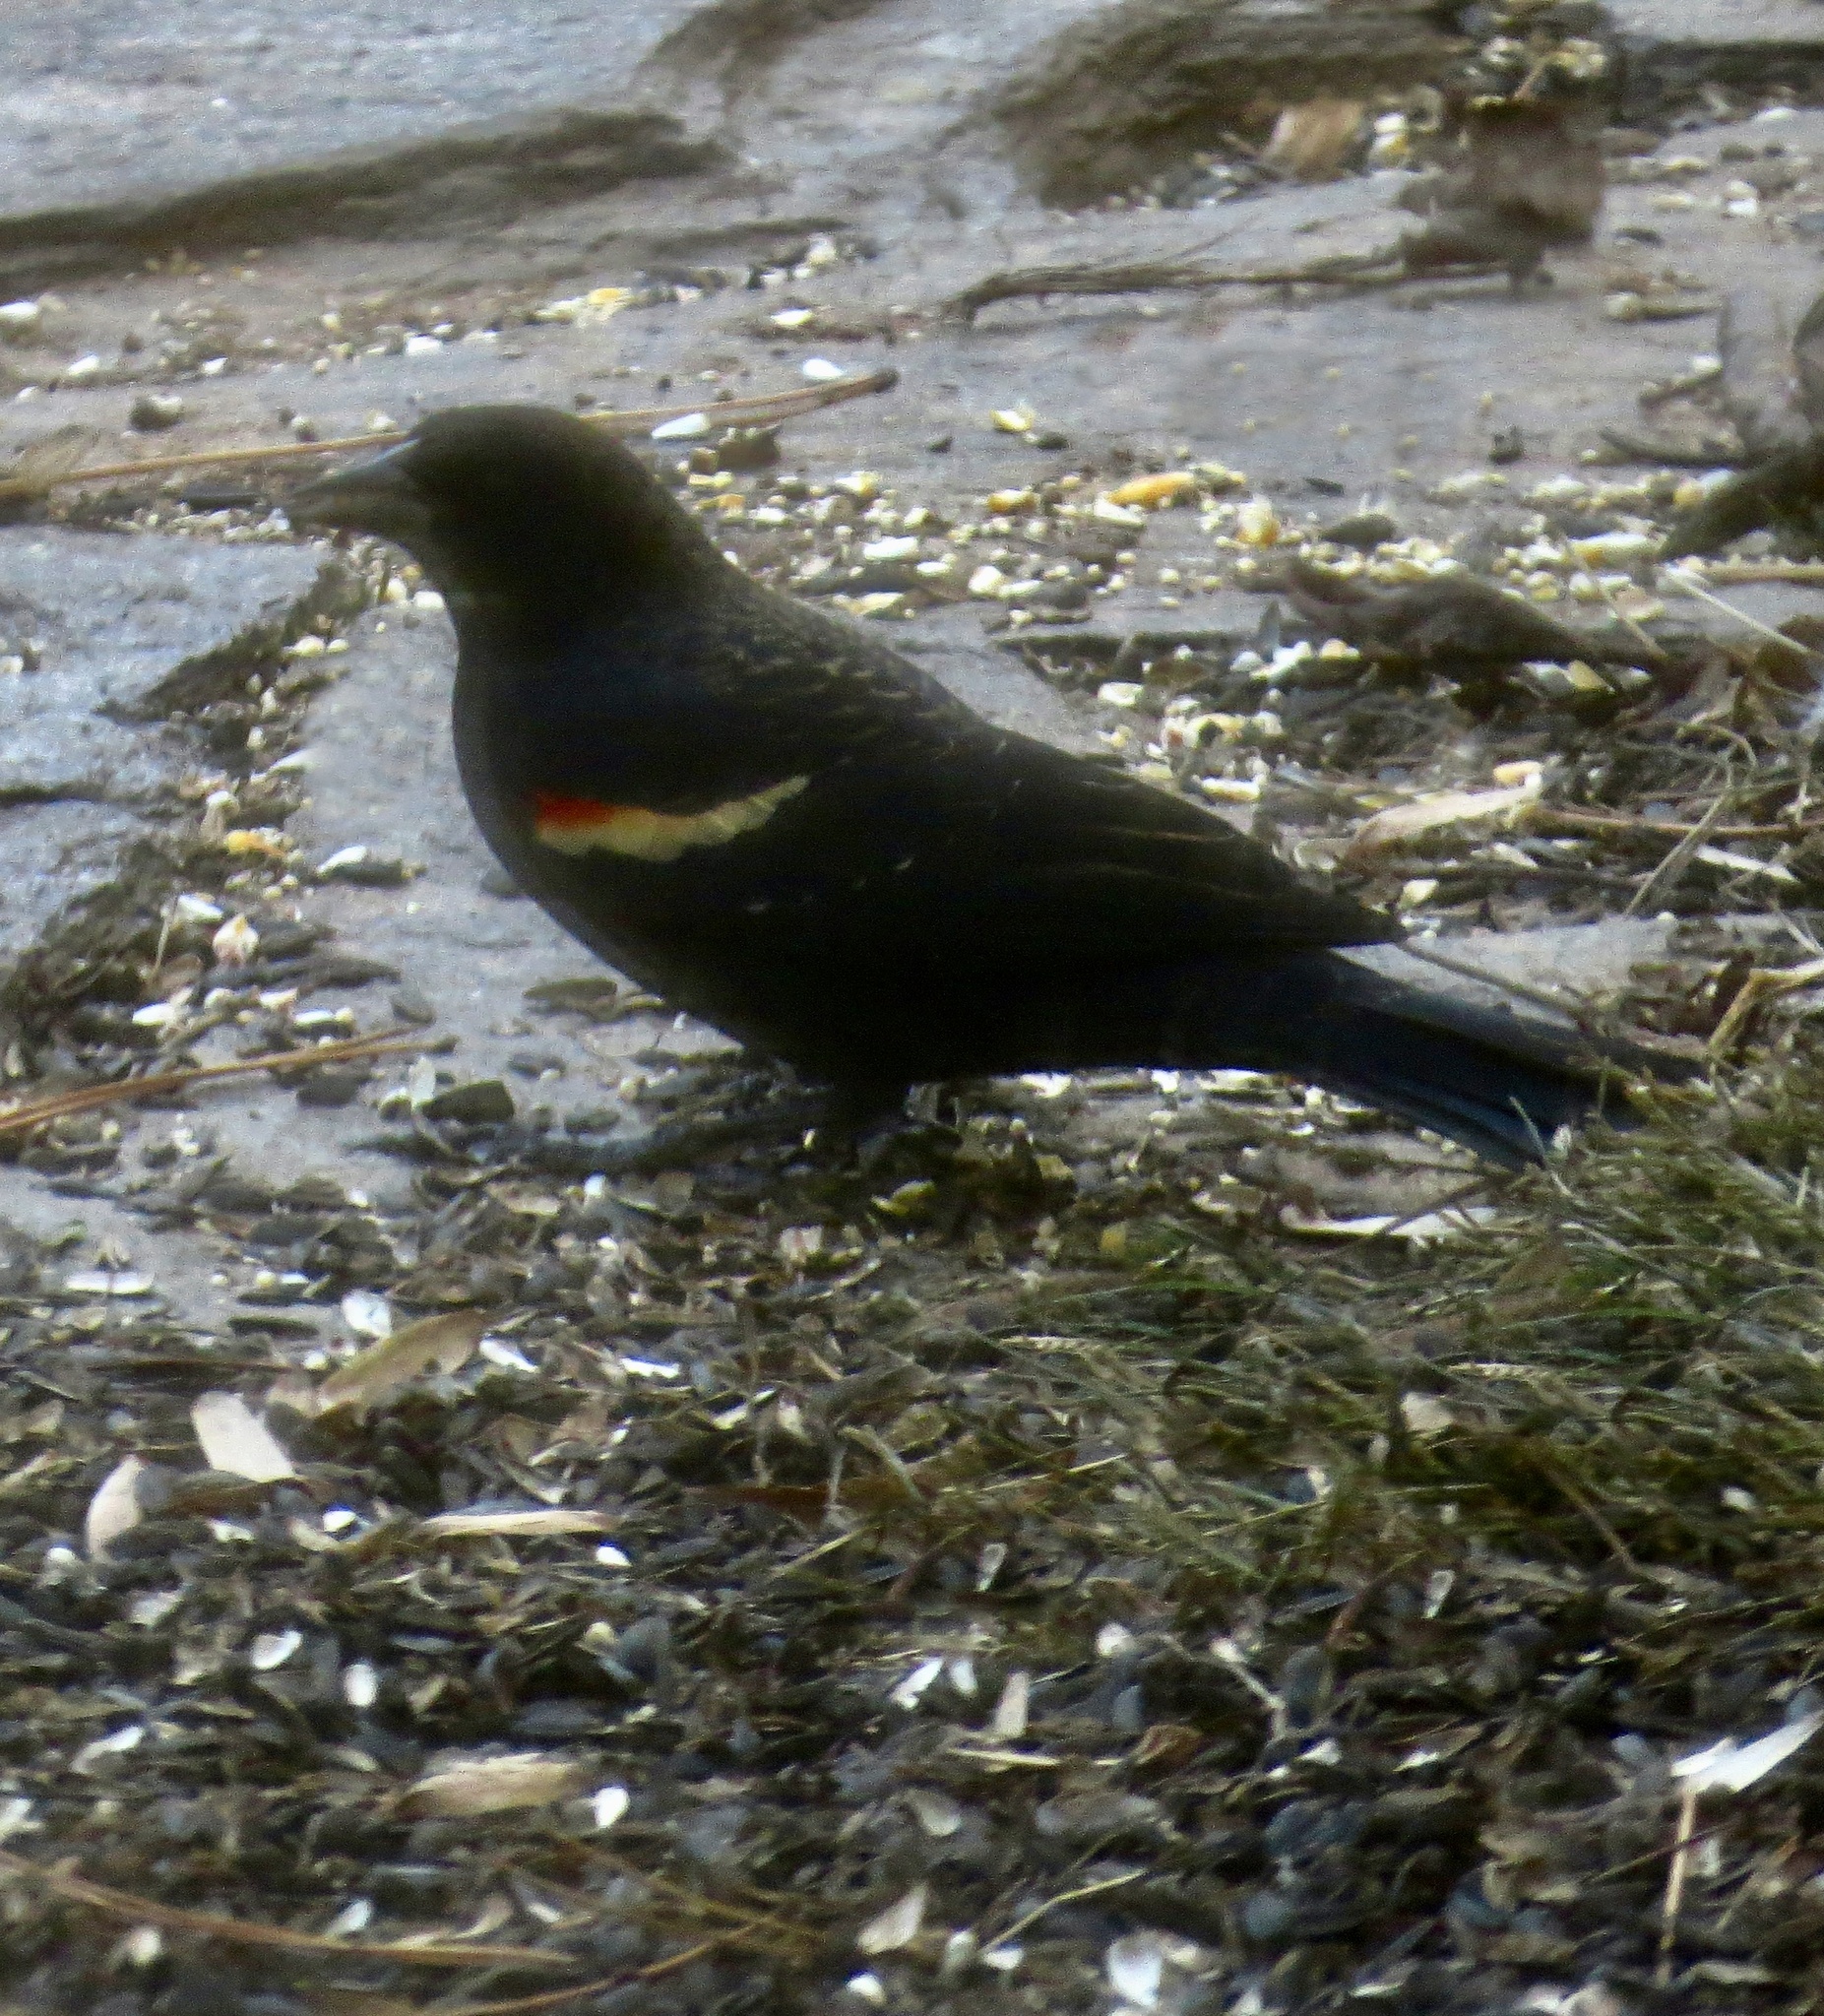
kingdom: Animalia
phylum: Chordata
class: Aves
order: Passeriformes
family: Icteridae
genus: Agelaius
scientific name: Agelaius phoeniceus
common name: Red-winged blackbird
